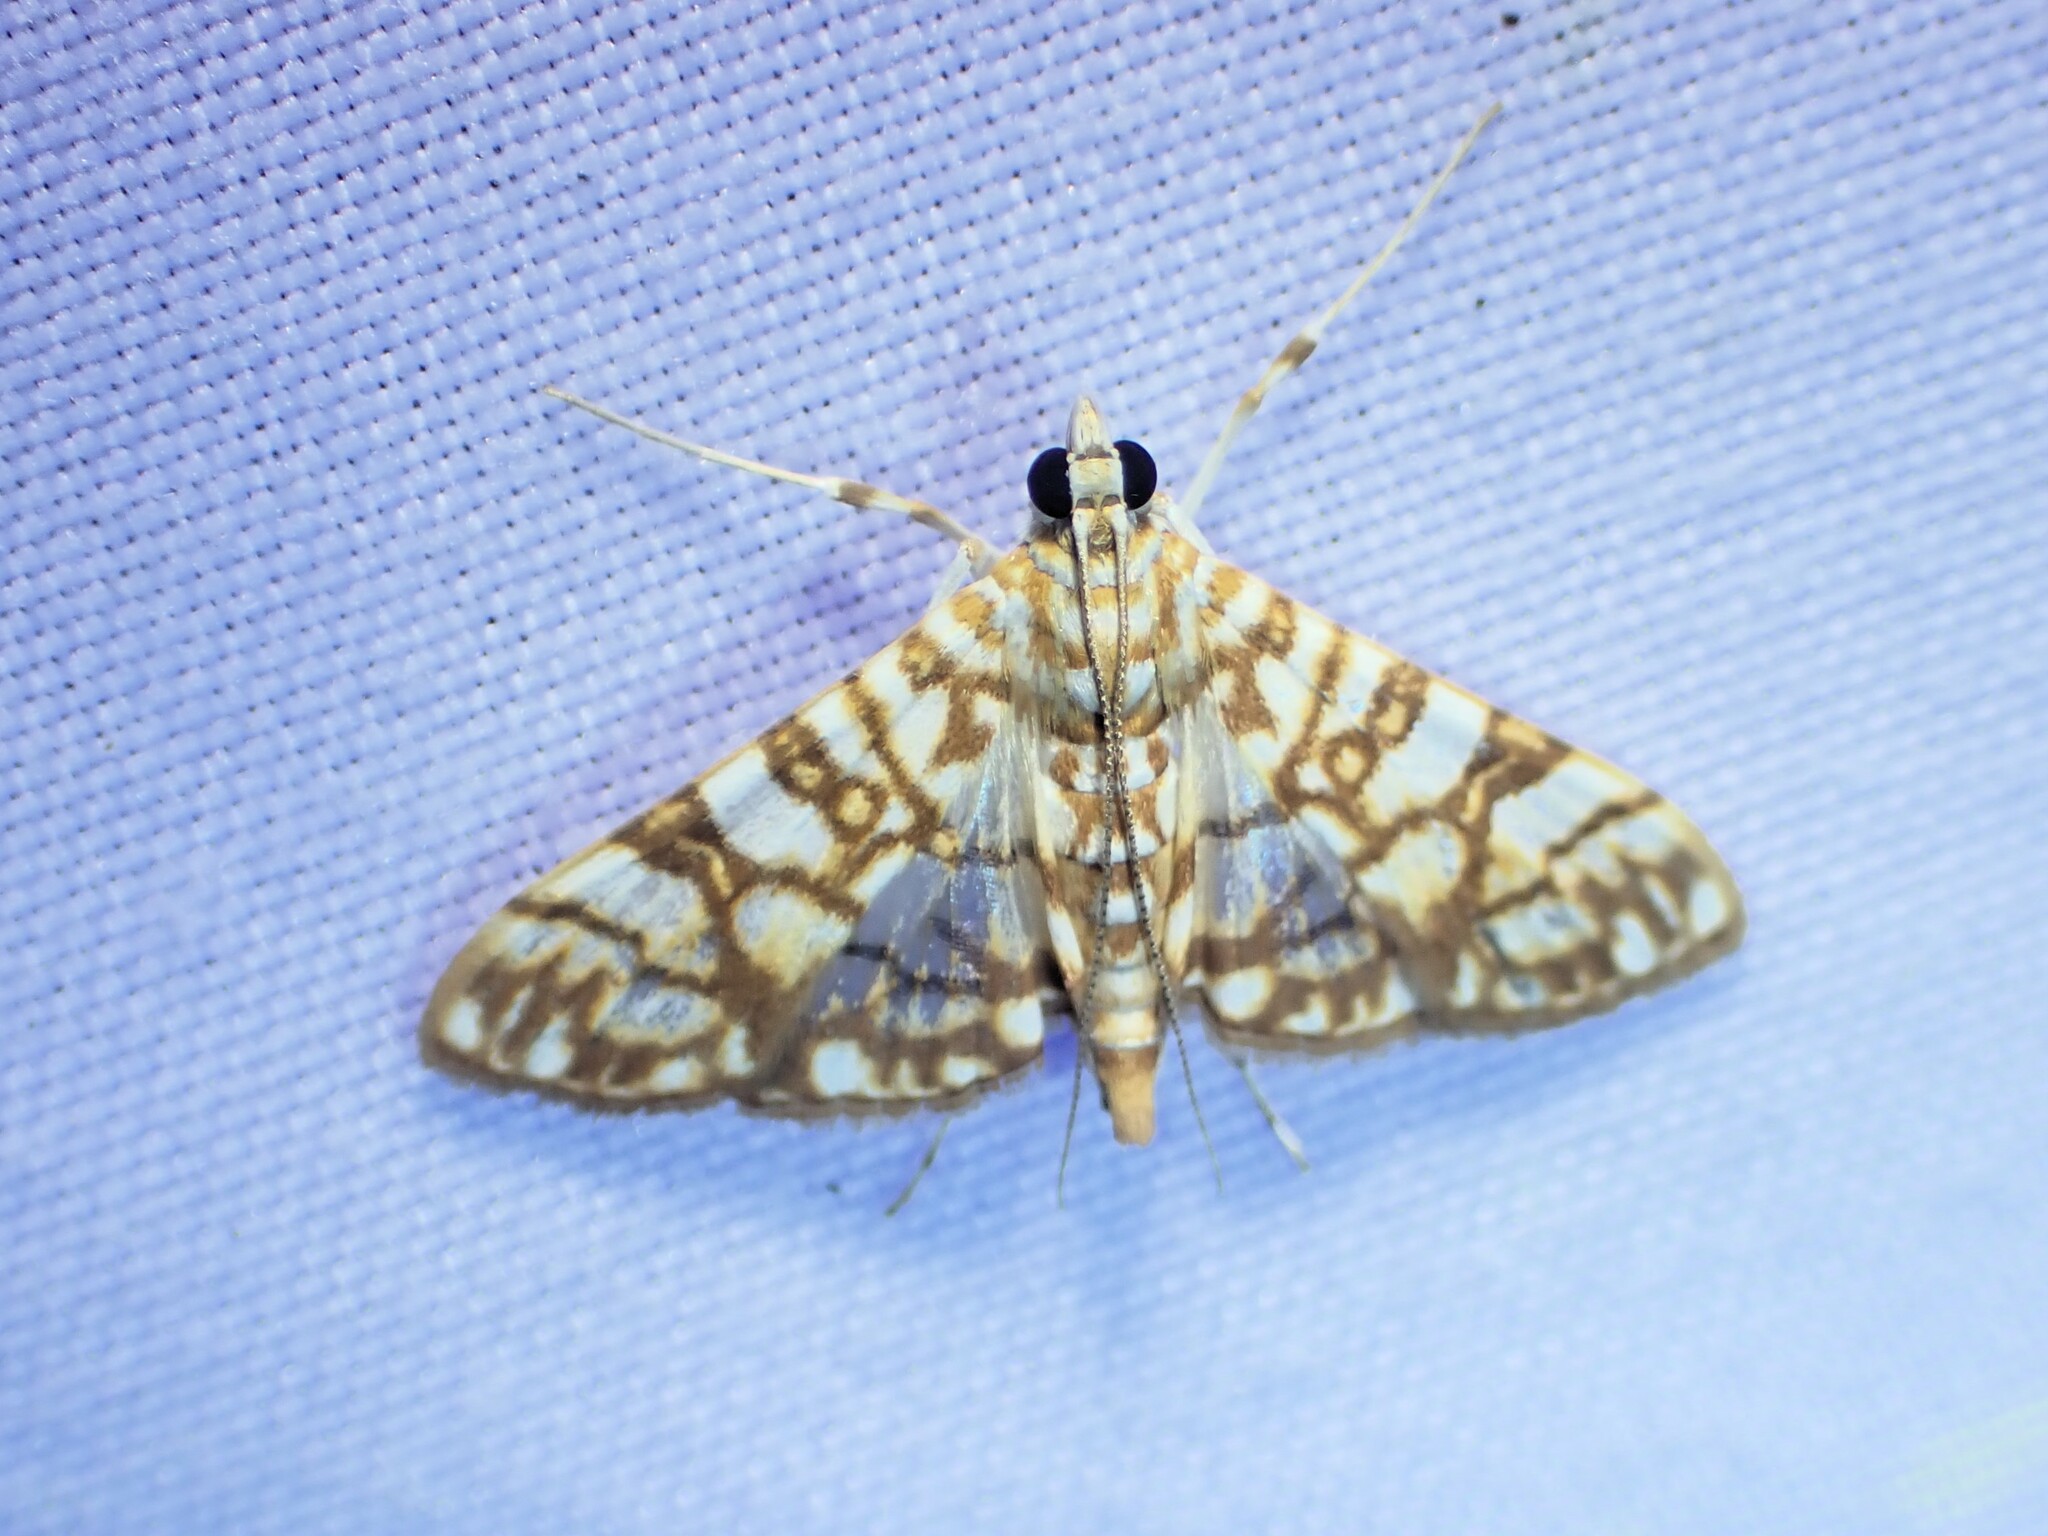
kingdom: Animalia
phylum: Arthropoda
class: Insecta
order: Lepidoptera
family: Crambidae
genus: Synclera
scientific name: Synclera traducalis
